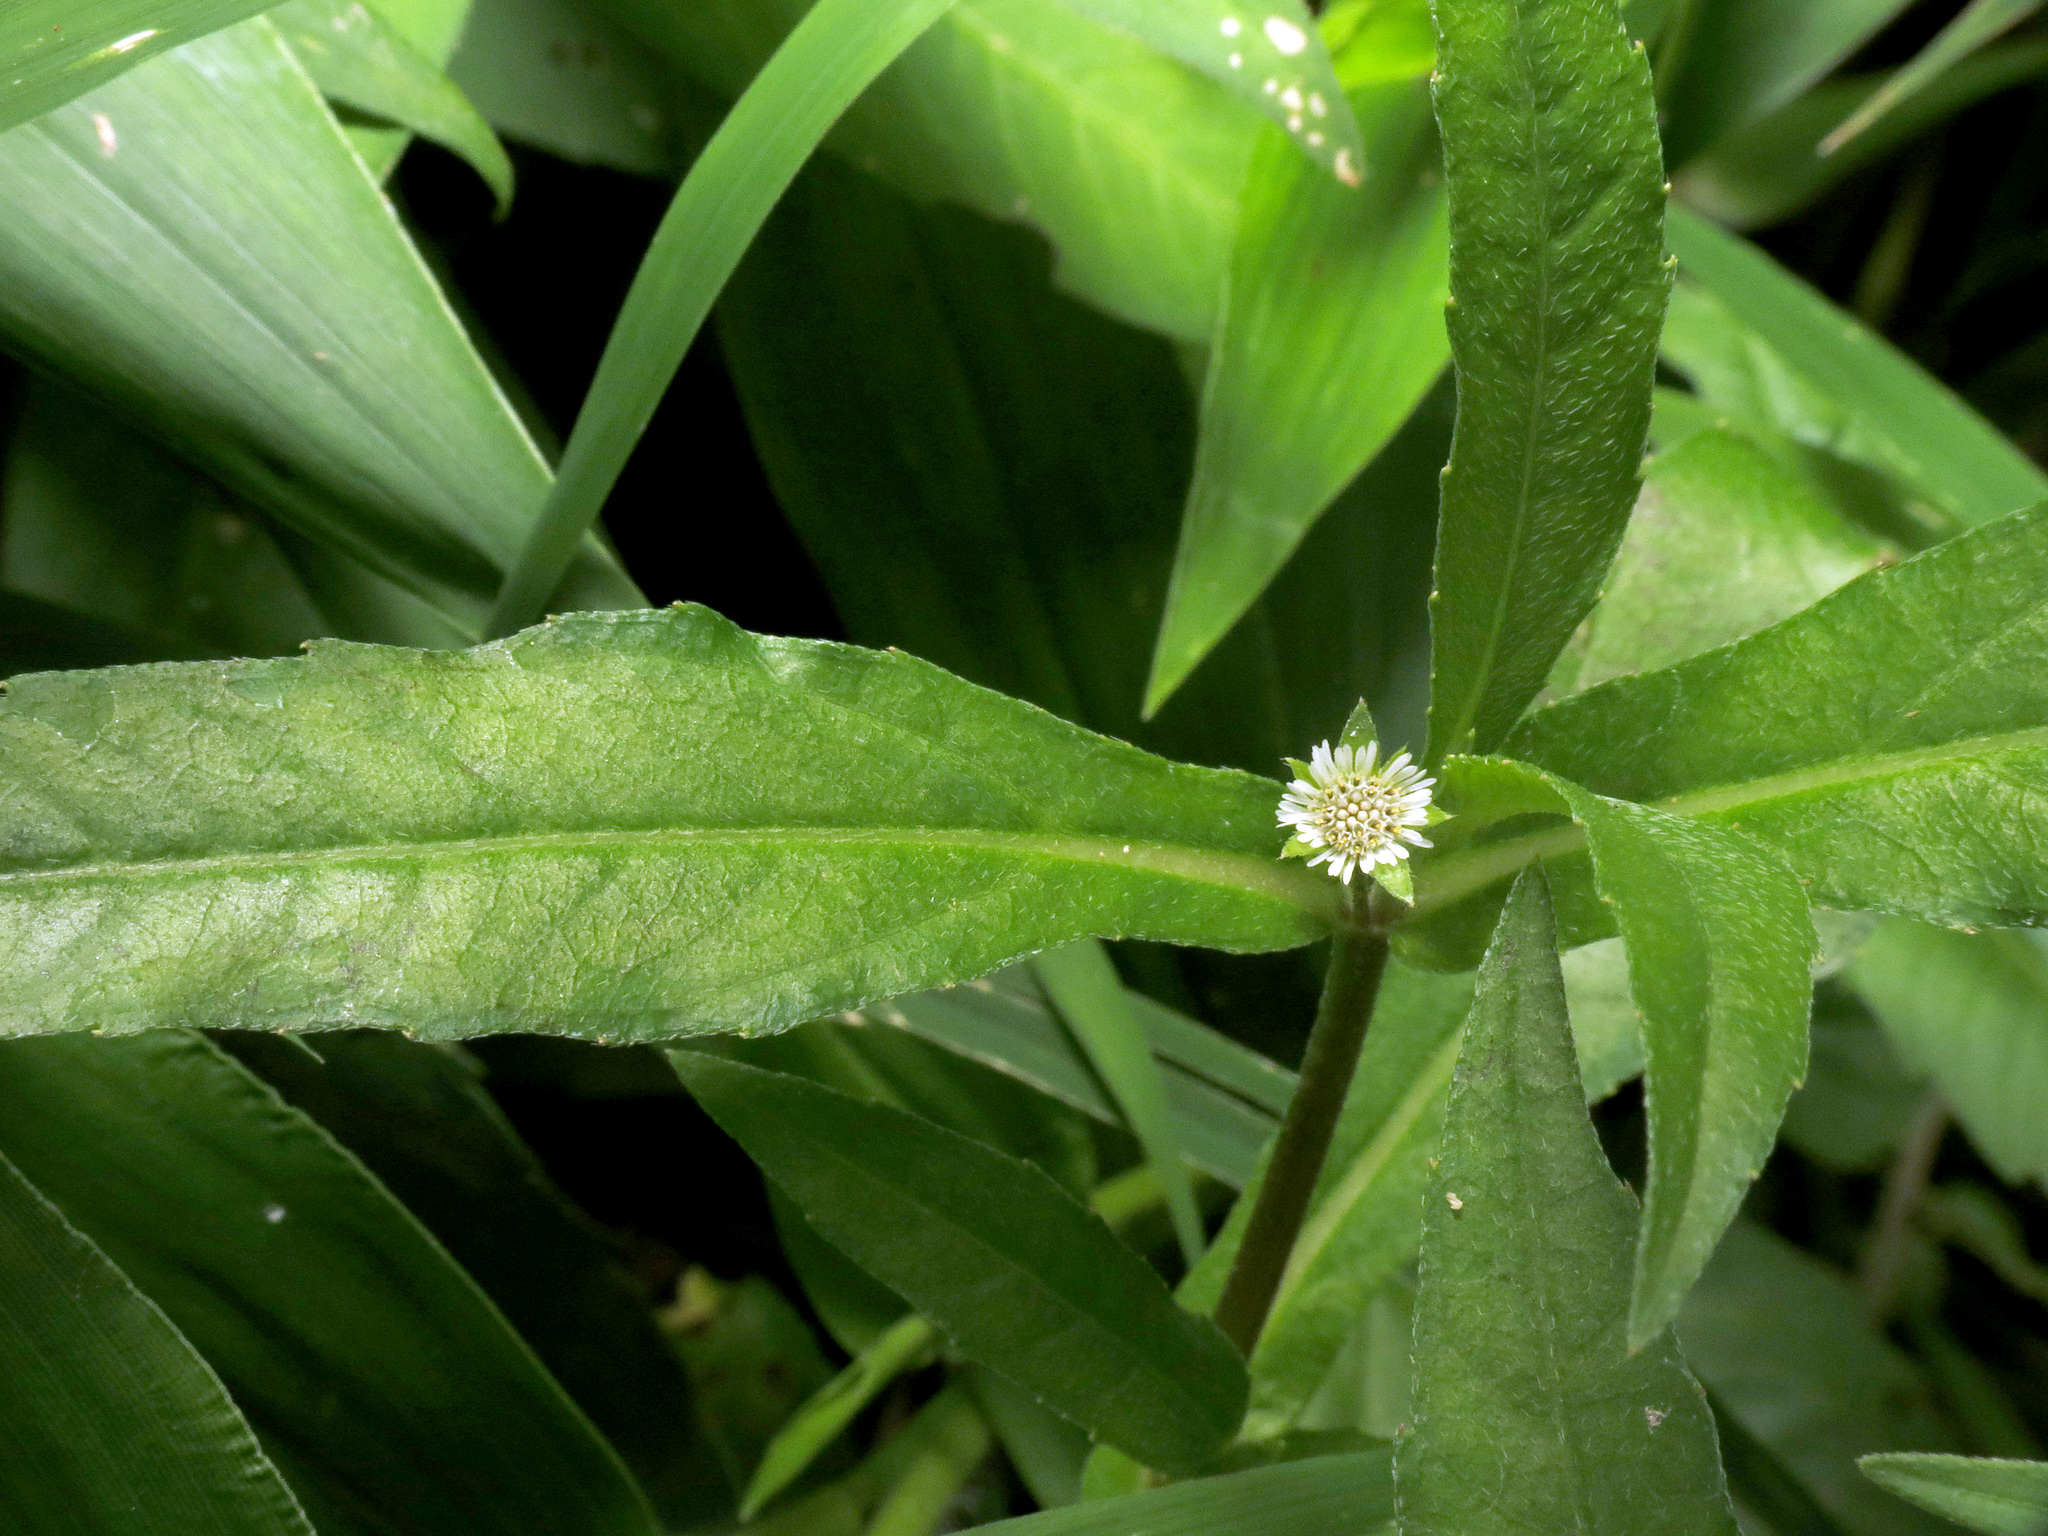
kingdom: Plantae
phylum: Tracheophyta
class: Magnoliopsida
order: Asterales
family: Asteraceae
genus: Eclipta
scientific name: Eclipta prostrata
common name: False daisy
